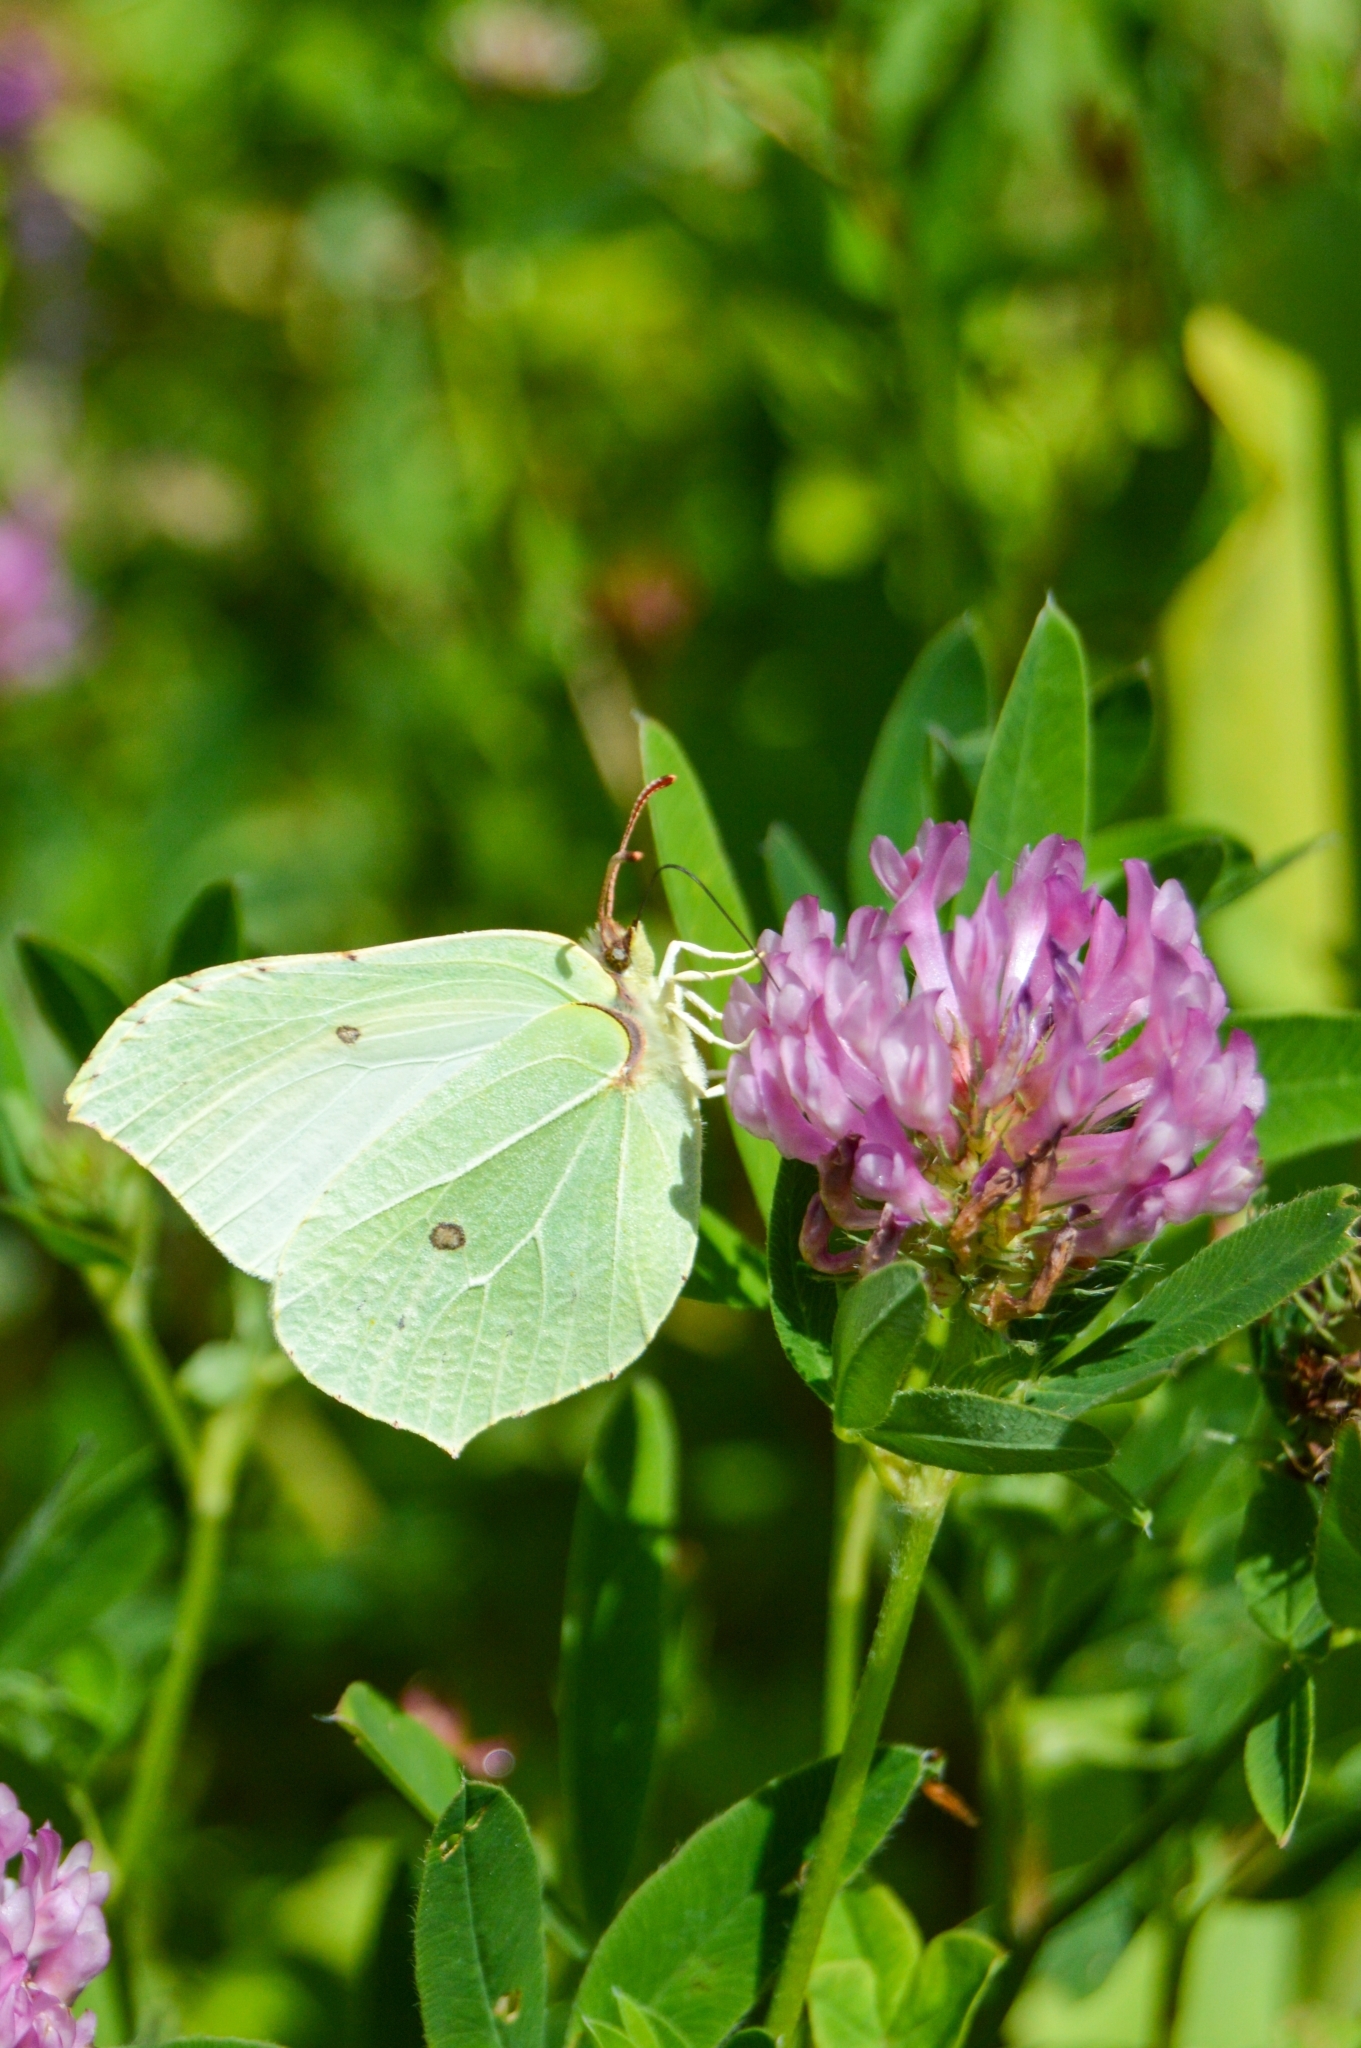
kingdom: Animalia
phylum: Arthropoda
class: Insecta
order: Lepidoptera
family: Pieridae
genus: Gonepteryx
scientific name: Gonepteryx rhamni
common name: Brimstone
